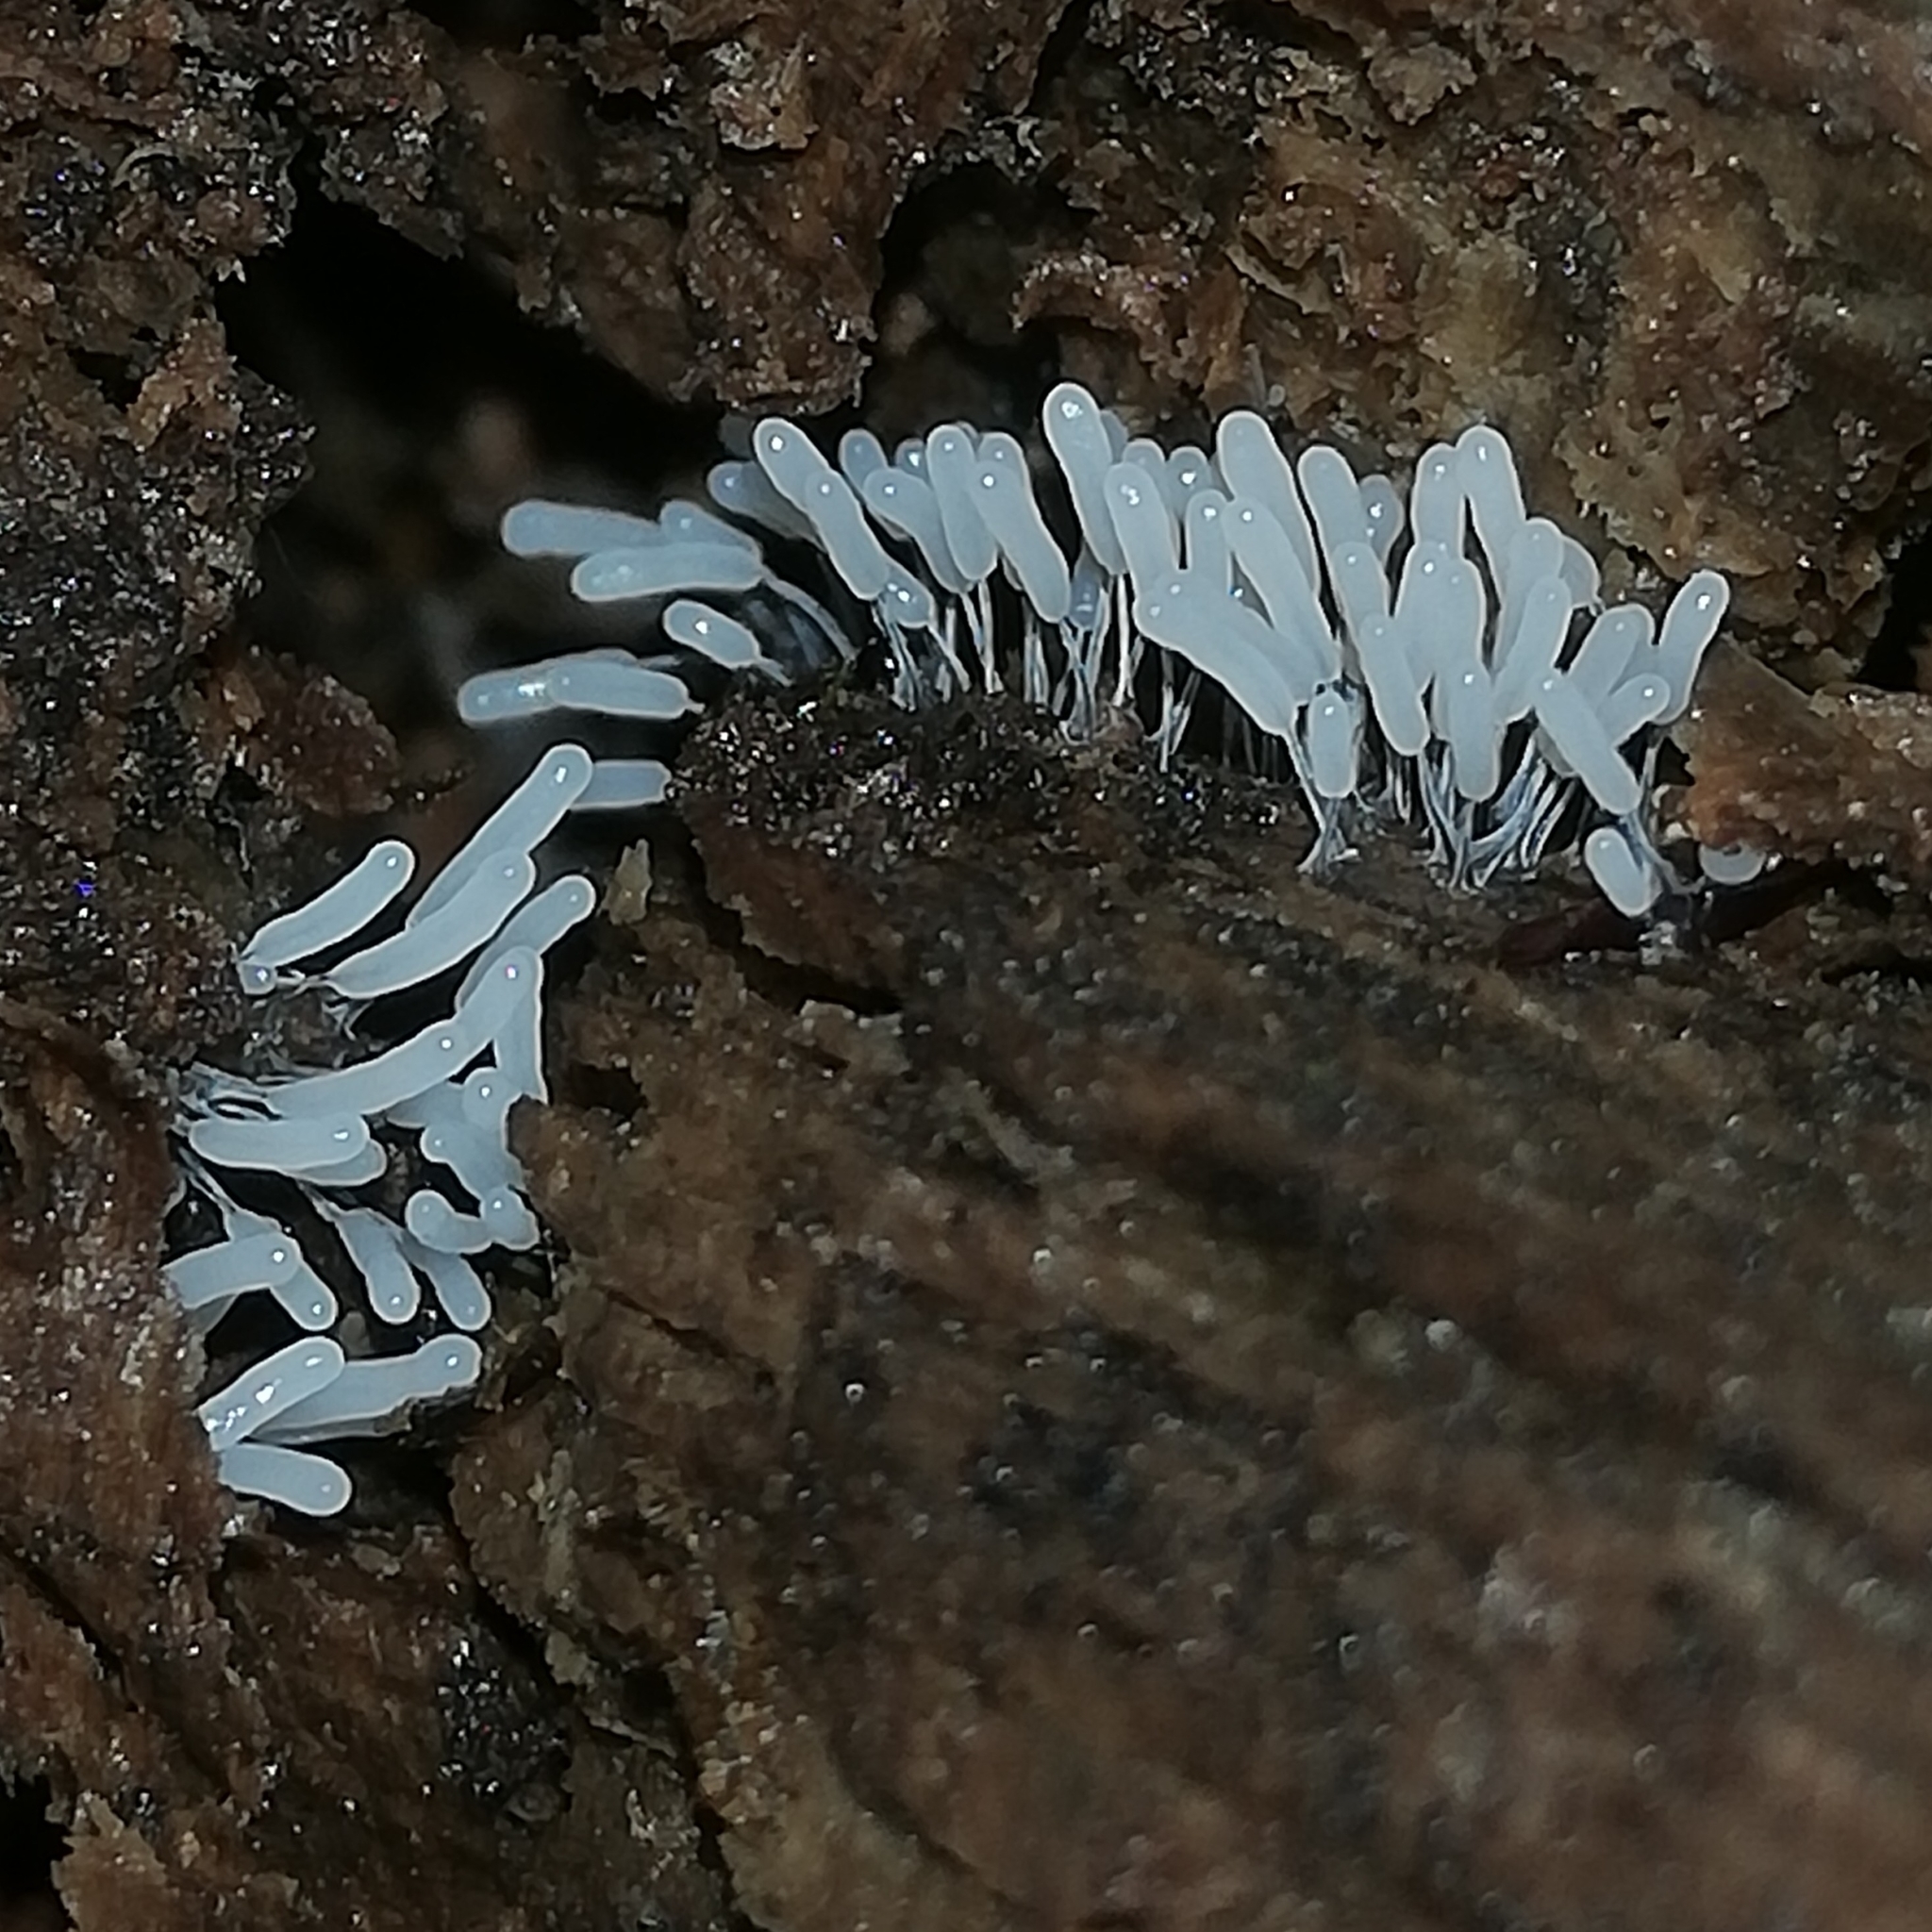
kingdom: Protozoa
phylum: Mycetozoa
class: Myxomycetes
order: Stemonitidales
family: Stemonitidaceae
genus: Stemonitopsis
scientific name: Stemonitopsis typhina
